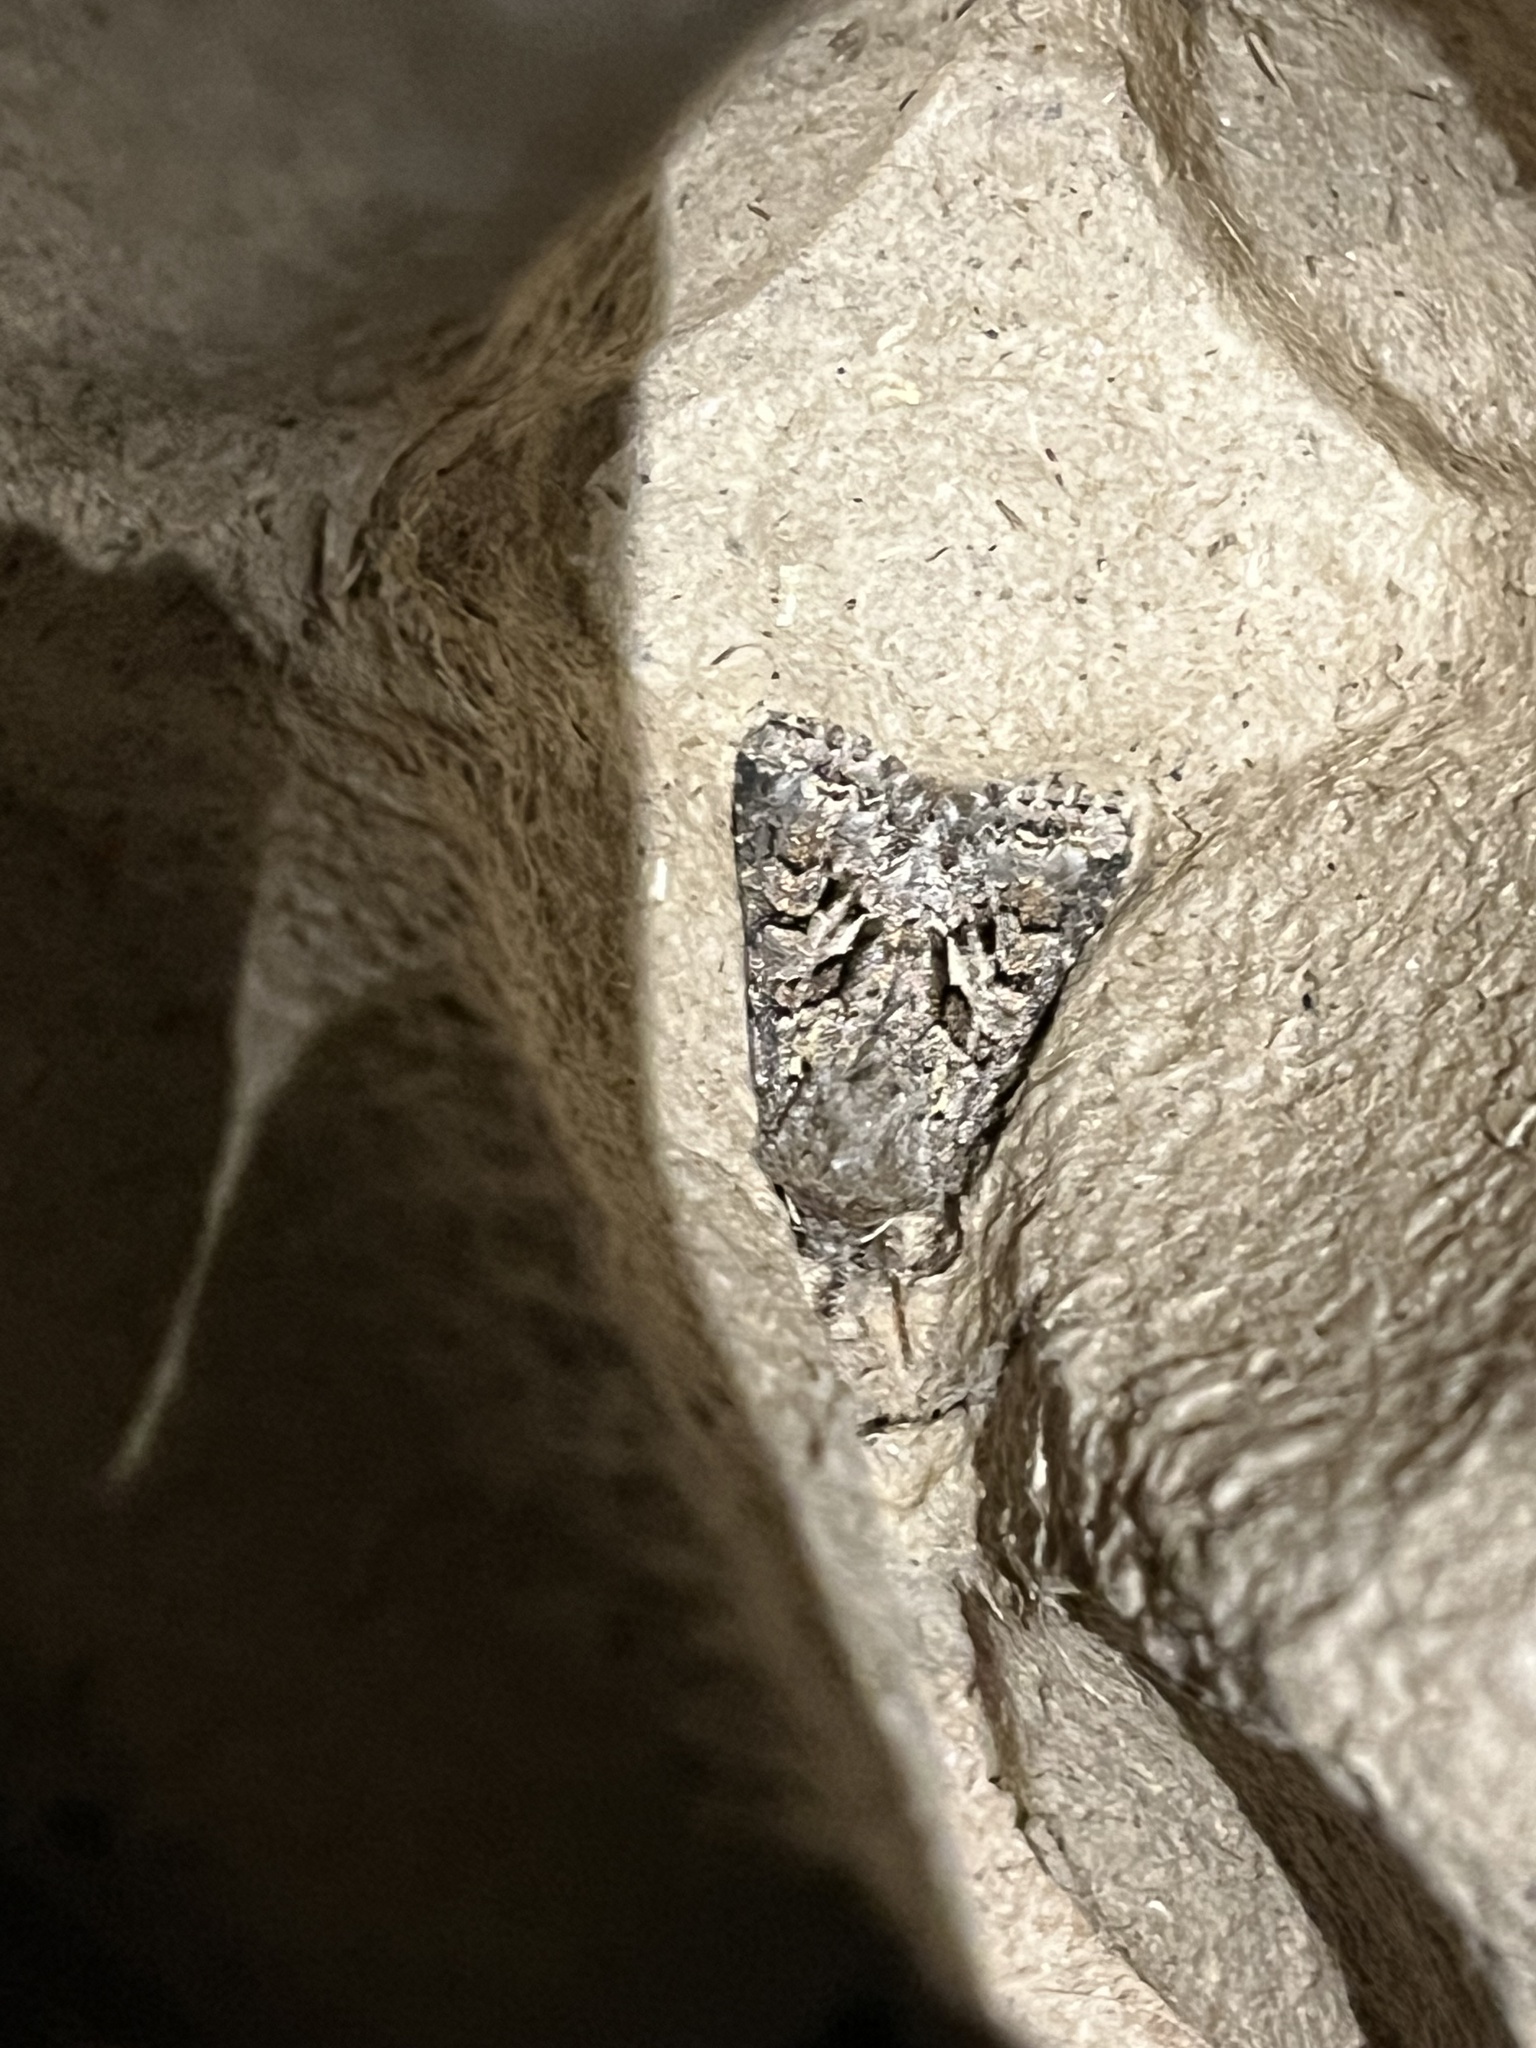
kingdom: Animalia
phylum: Arthropoda
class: Insecta
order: Lepidoptera
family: Noctuidae
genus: Hada
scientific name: Hada plebeja
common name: Shears
